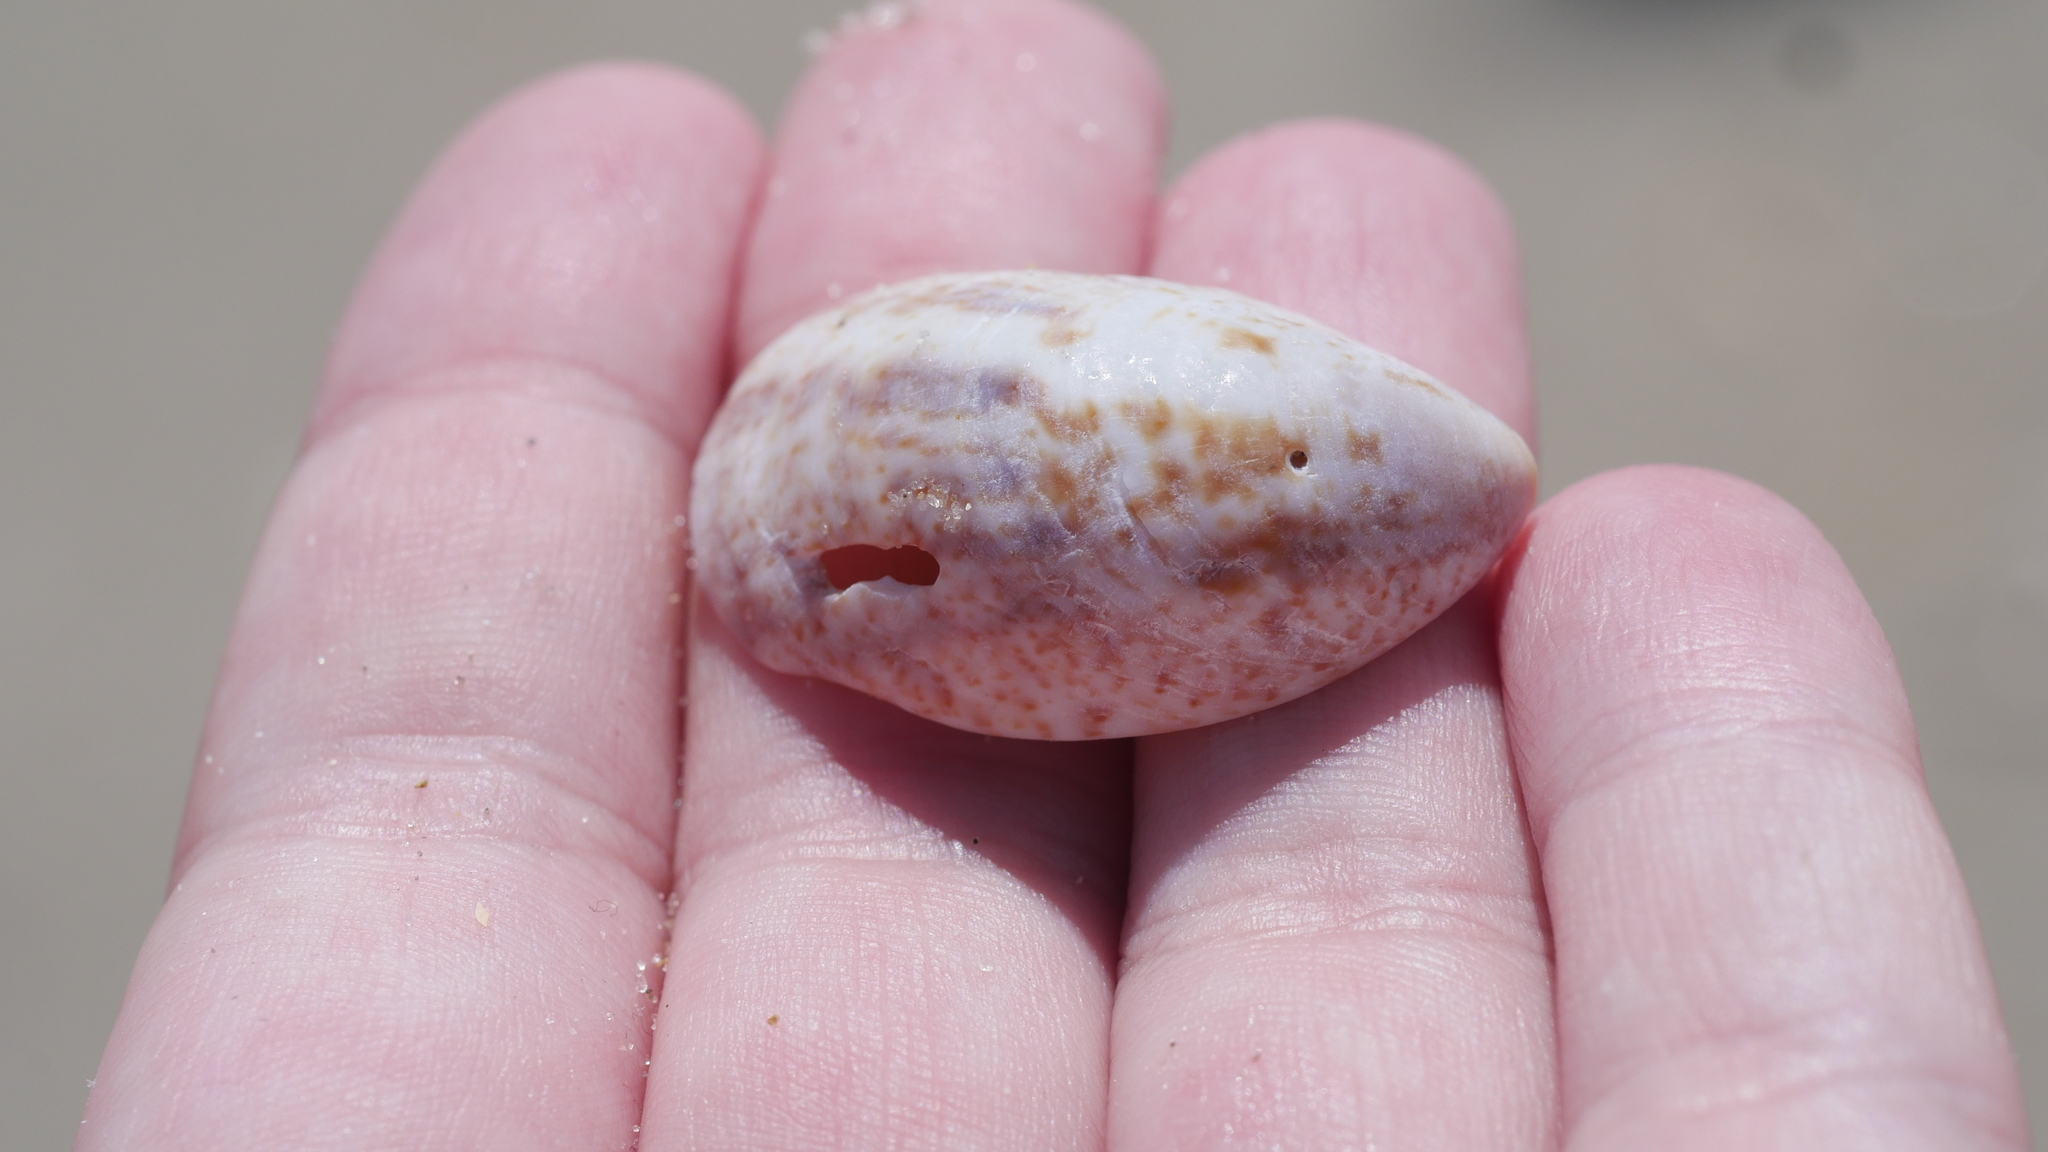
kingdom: Animalia
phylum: Mollusca
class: Gastropoda
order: Littorinimorpha
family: Calyptraeidae
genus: Crepidula
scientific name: Crepidula fornicata
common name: Slipper limpet
